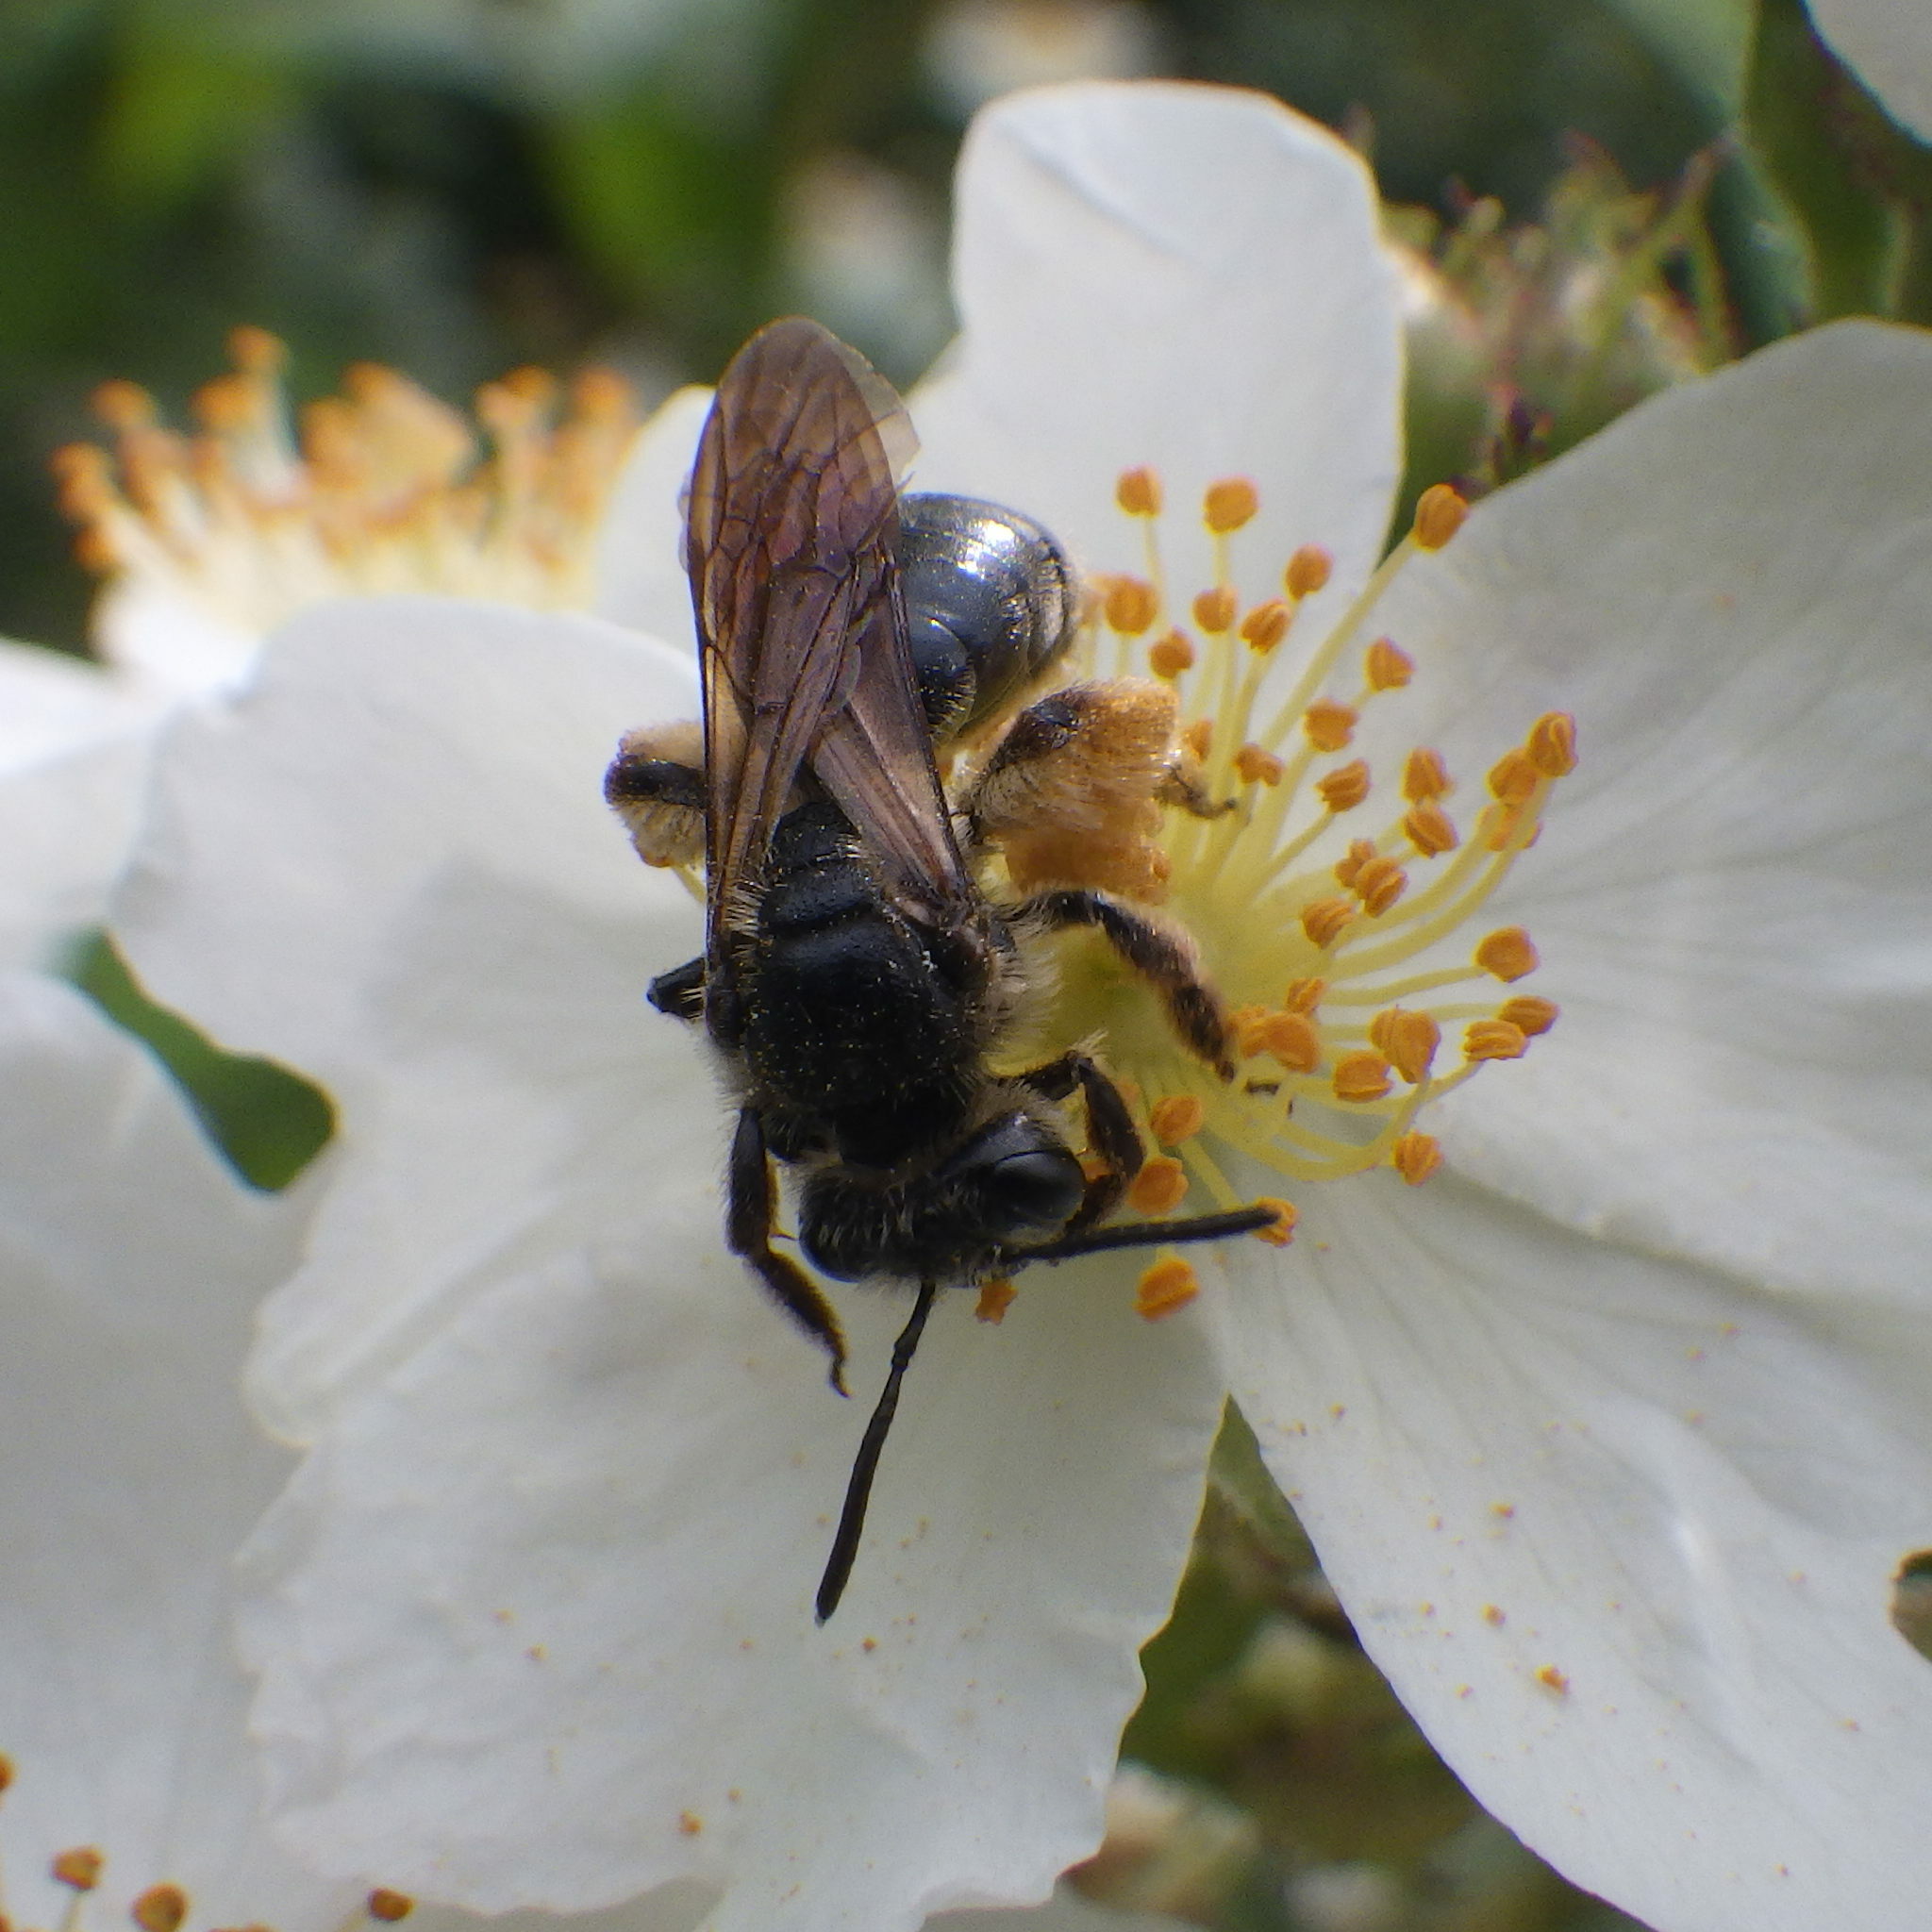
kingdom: Animalia
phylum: Arthropoda
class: Insecta
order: Hymenoptera
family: Andrenidae
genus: Andrena
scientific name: Andrena crataegi
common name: Hawthorn mining bee
